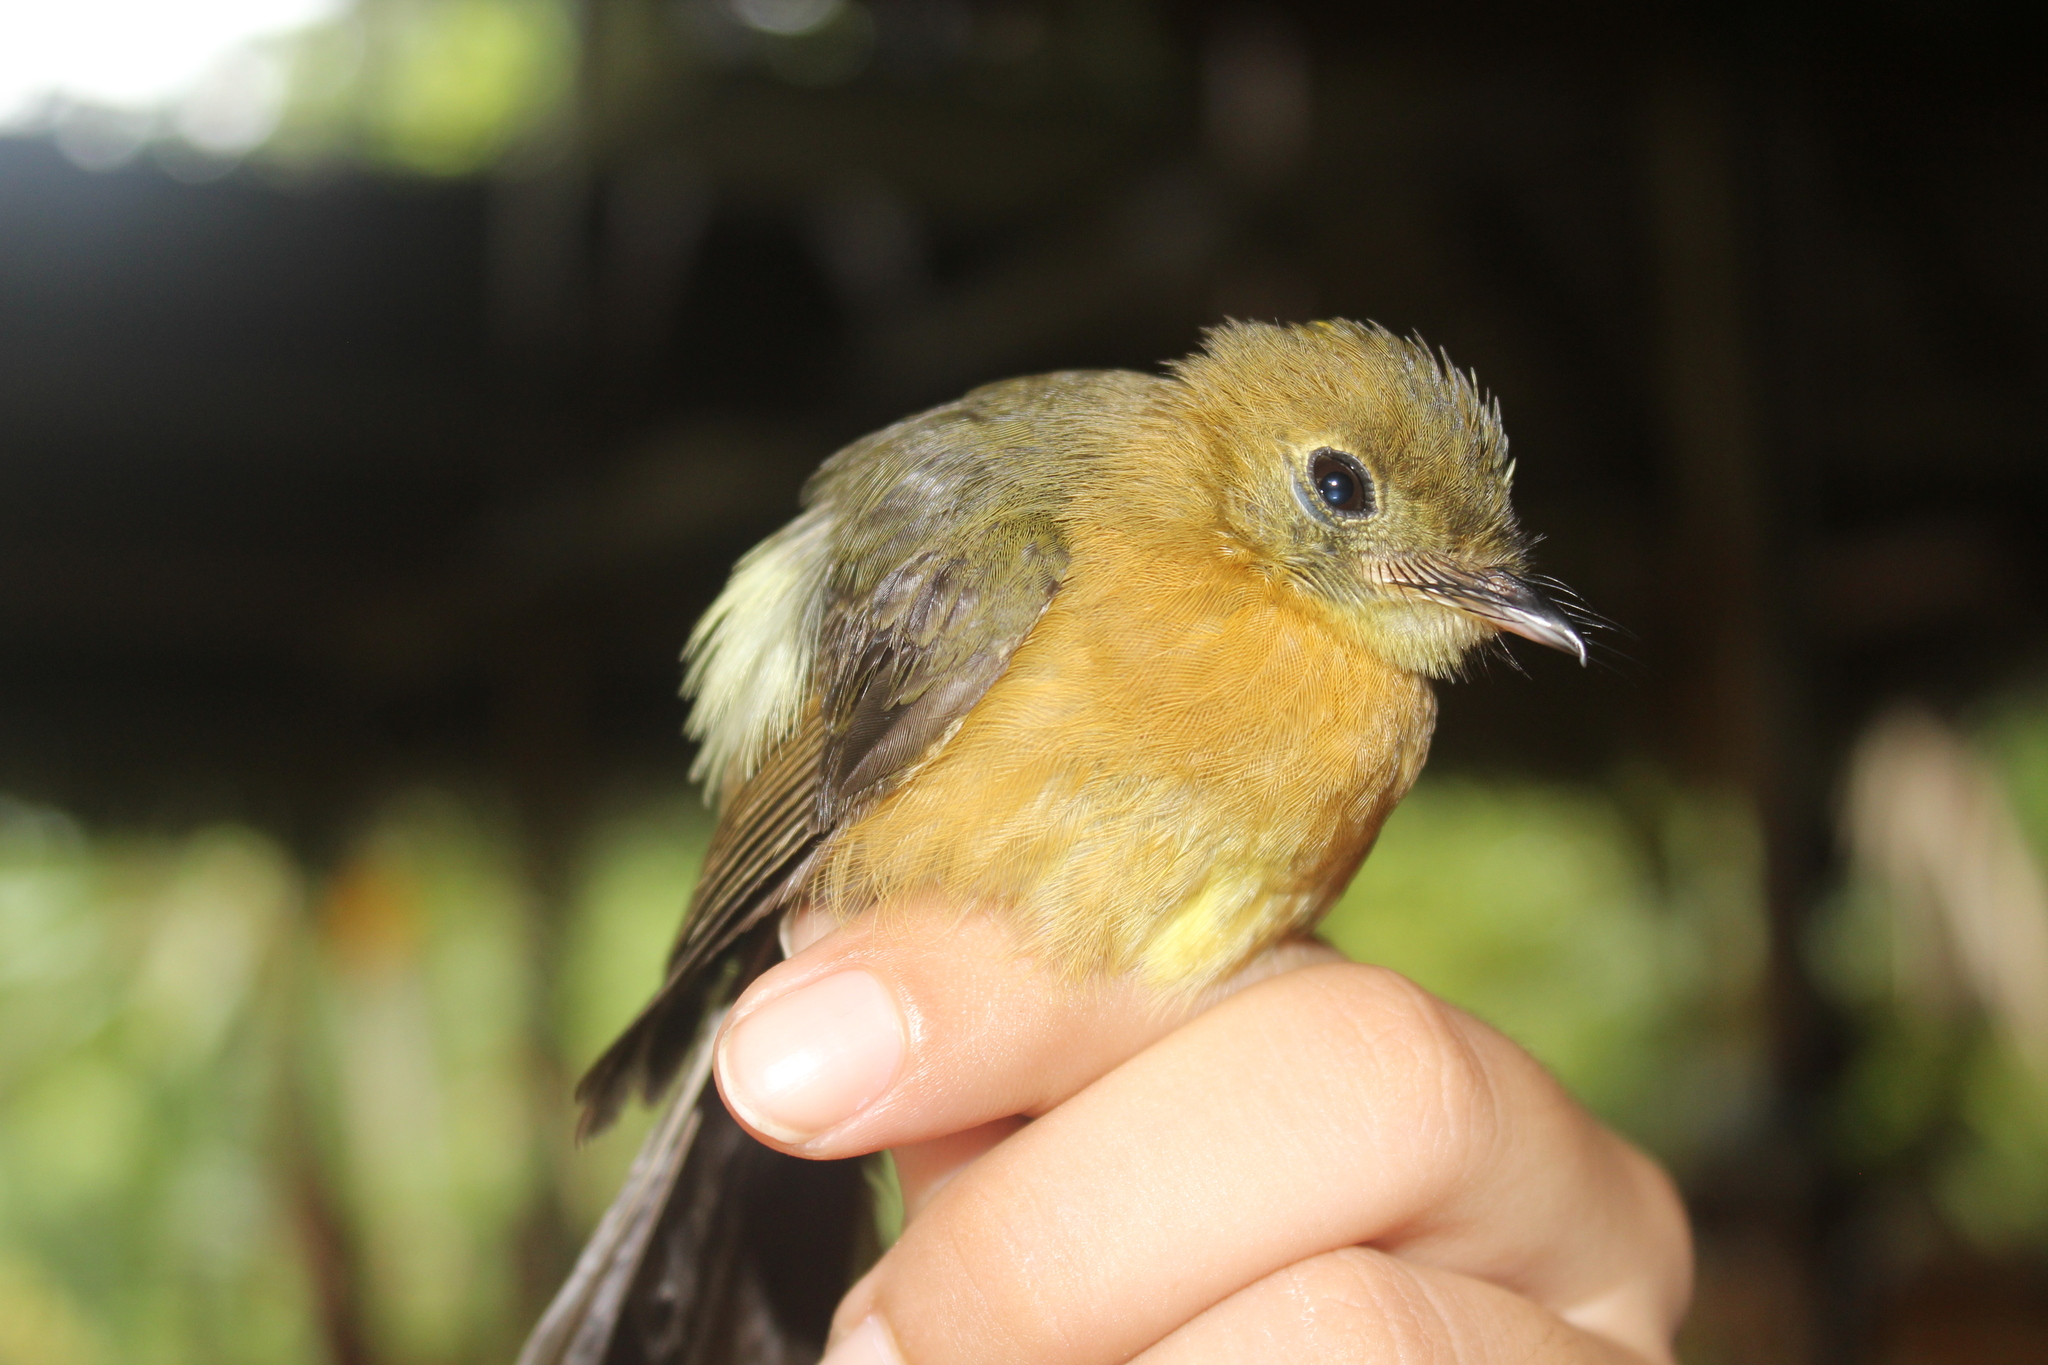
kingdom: Animalia
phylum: Chordata
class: Aves
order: Passeriformes
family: Tyrannidae
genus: Myiobius
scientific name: Myiobius barbatus
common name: Whiskered myiobius
